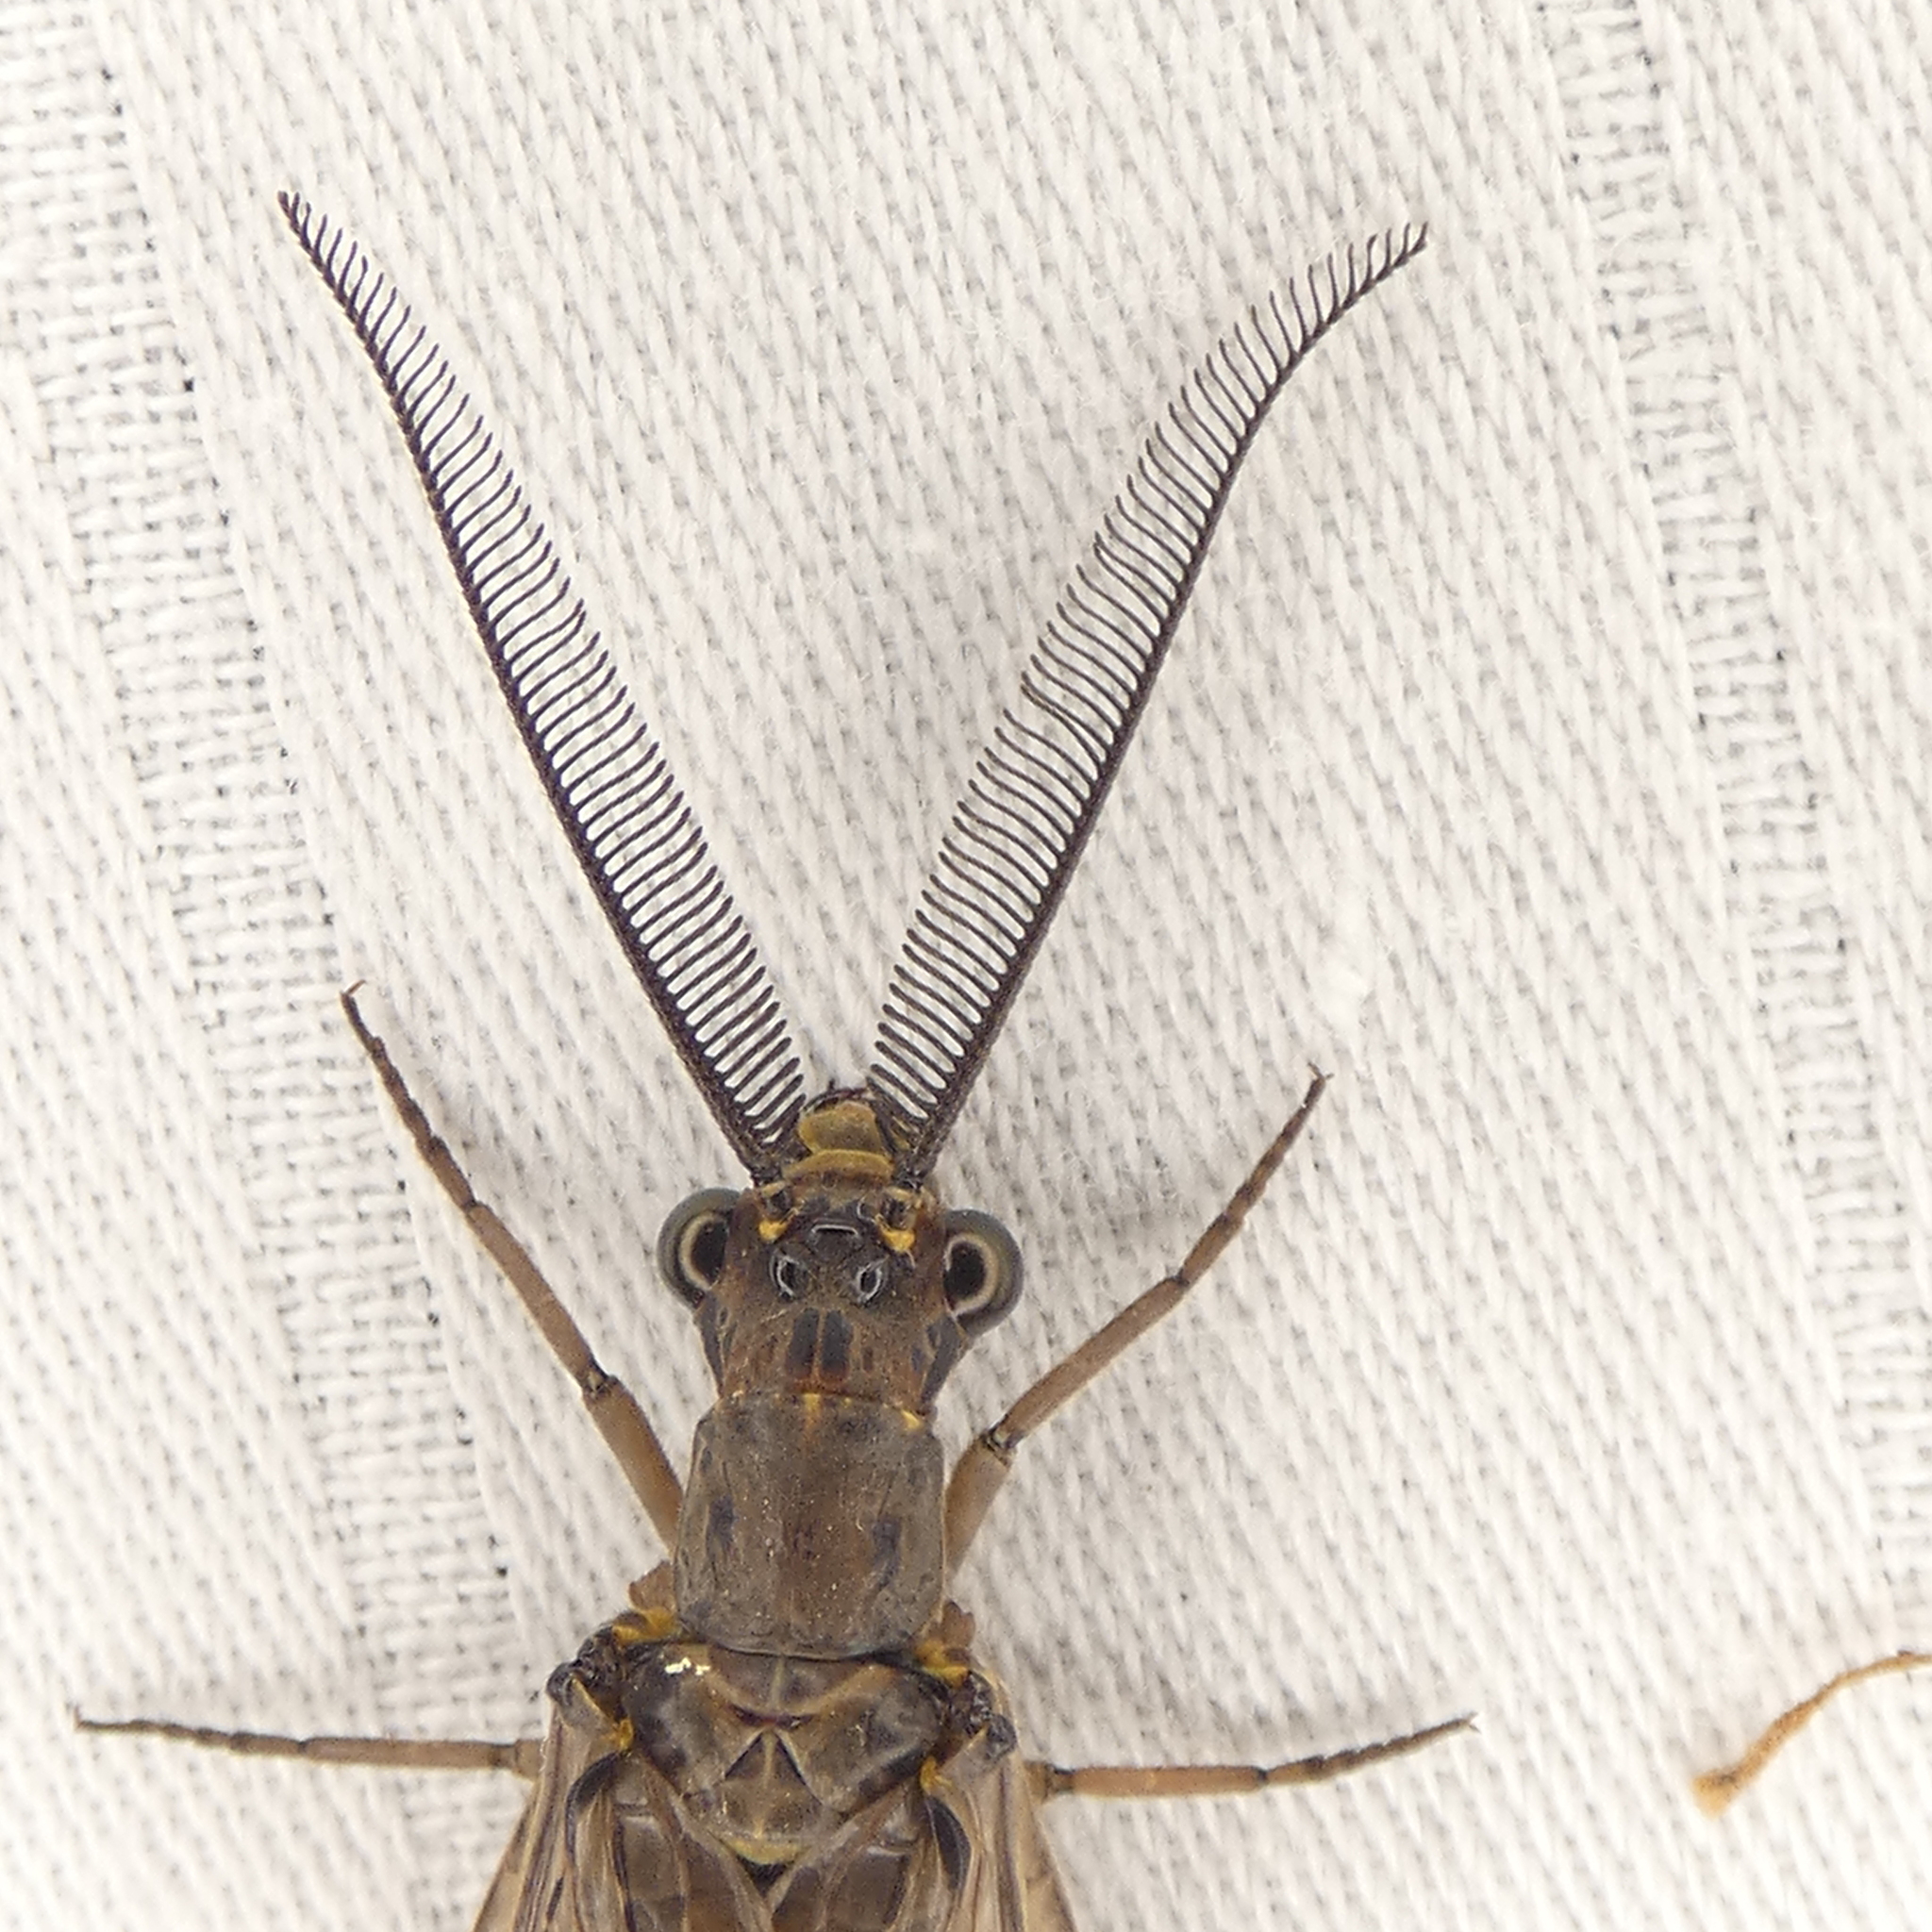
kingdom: Animalia
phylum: Arthropoda
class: Insecta
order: Megaloptera
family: Corydalidae
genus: Chauliodes
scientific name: Chauliodes rastricornis
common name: Spring fishfly
